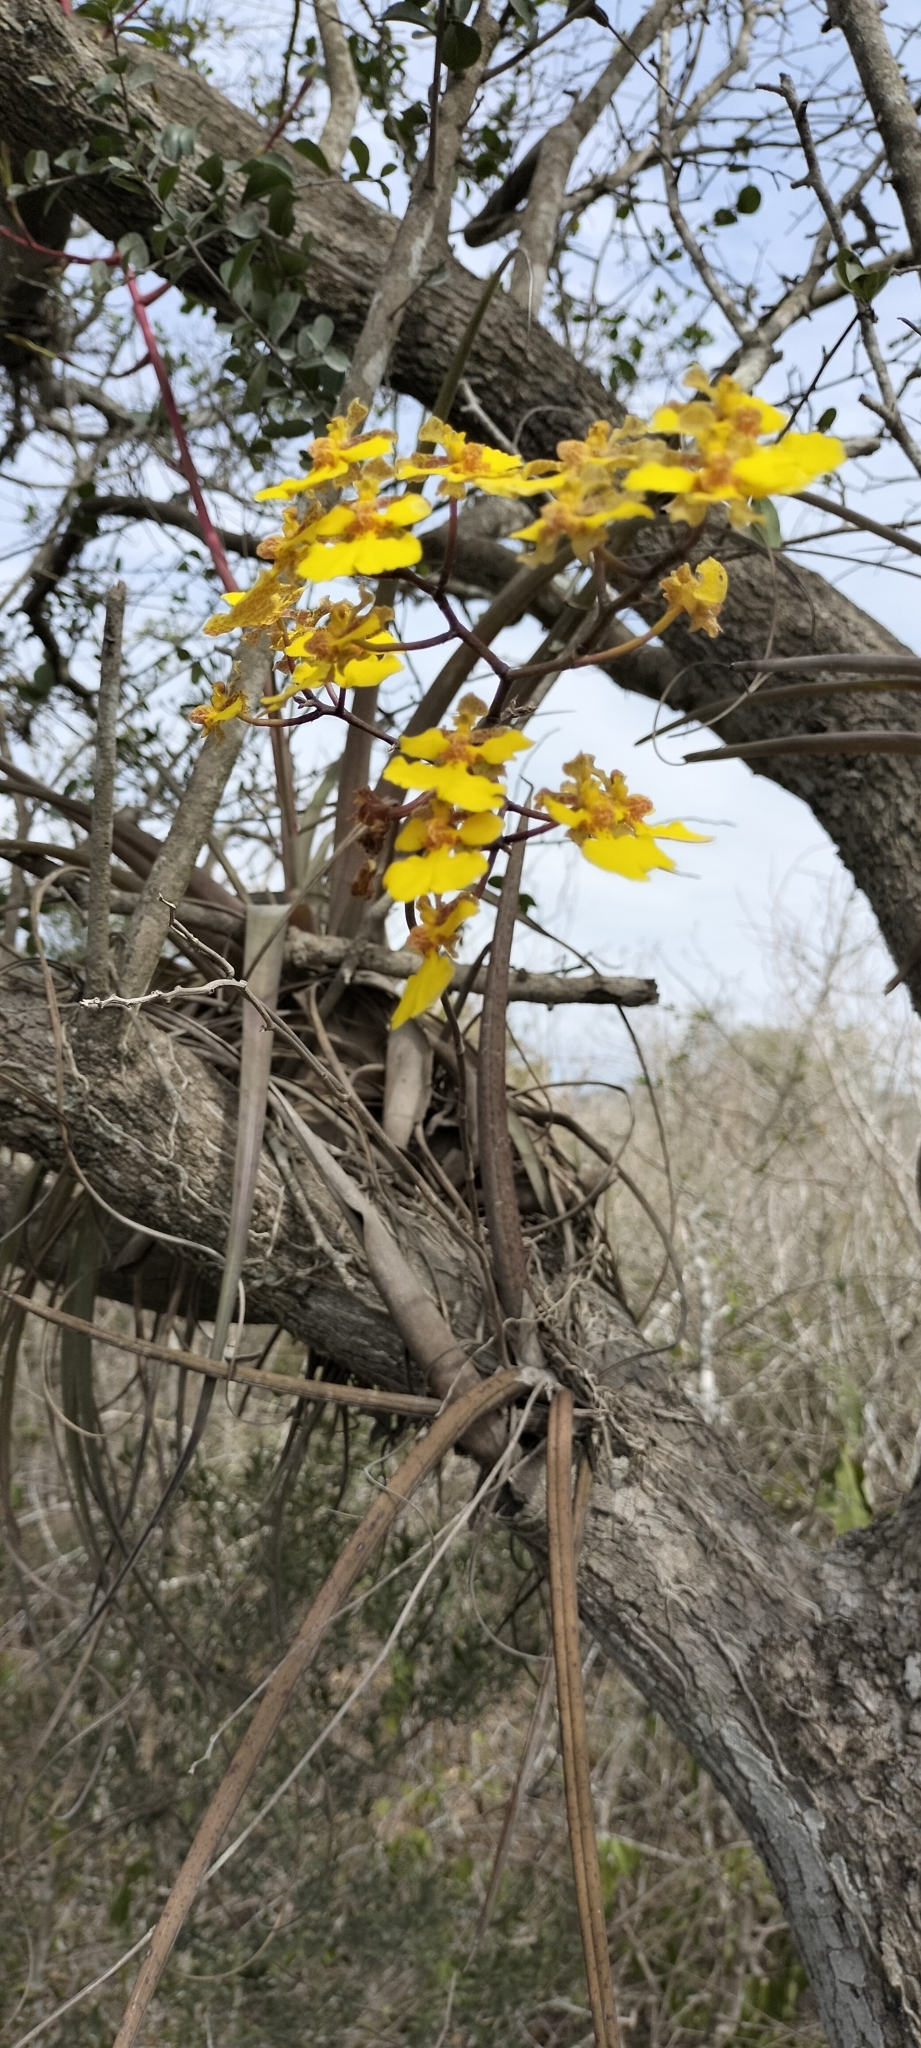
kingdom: Plantae
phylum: Tracheophyta
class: Liliopsida
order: Asparagales
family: Orchidaceae
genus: Trichocentrum
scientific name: Trichocentrum biorbiculare
